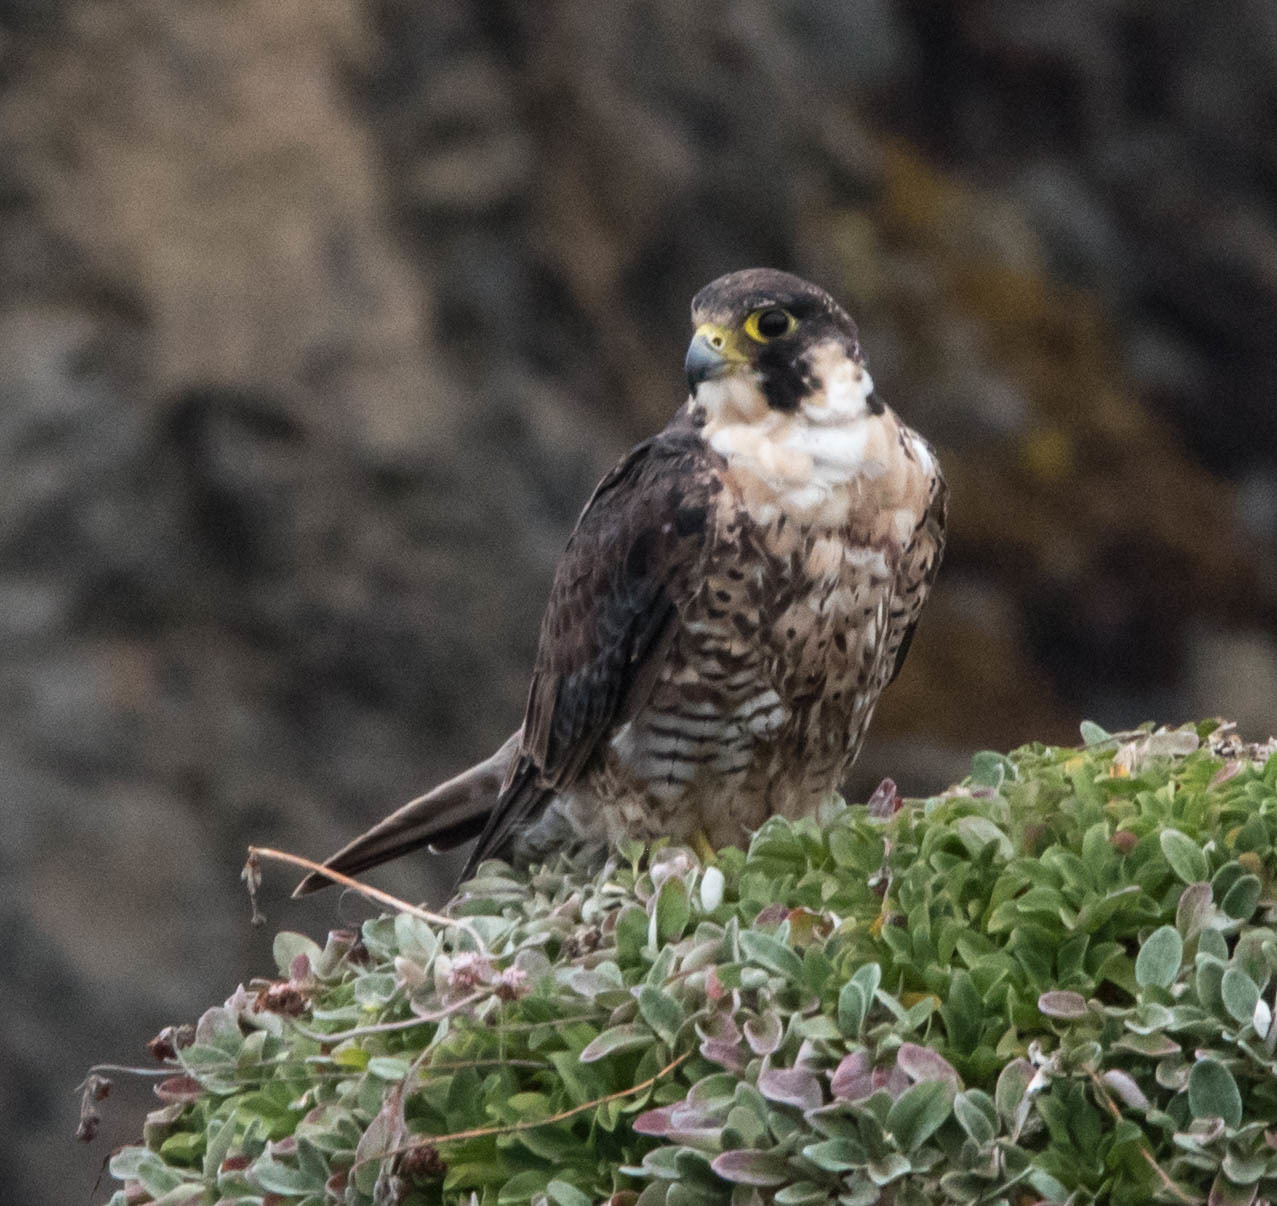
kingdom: Animalia
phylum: Chordata
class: Aves
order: Falconiformes
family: Falconidae
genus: Falco
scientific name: Falco peregrinus
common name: Peregrine falcon
